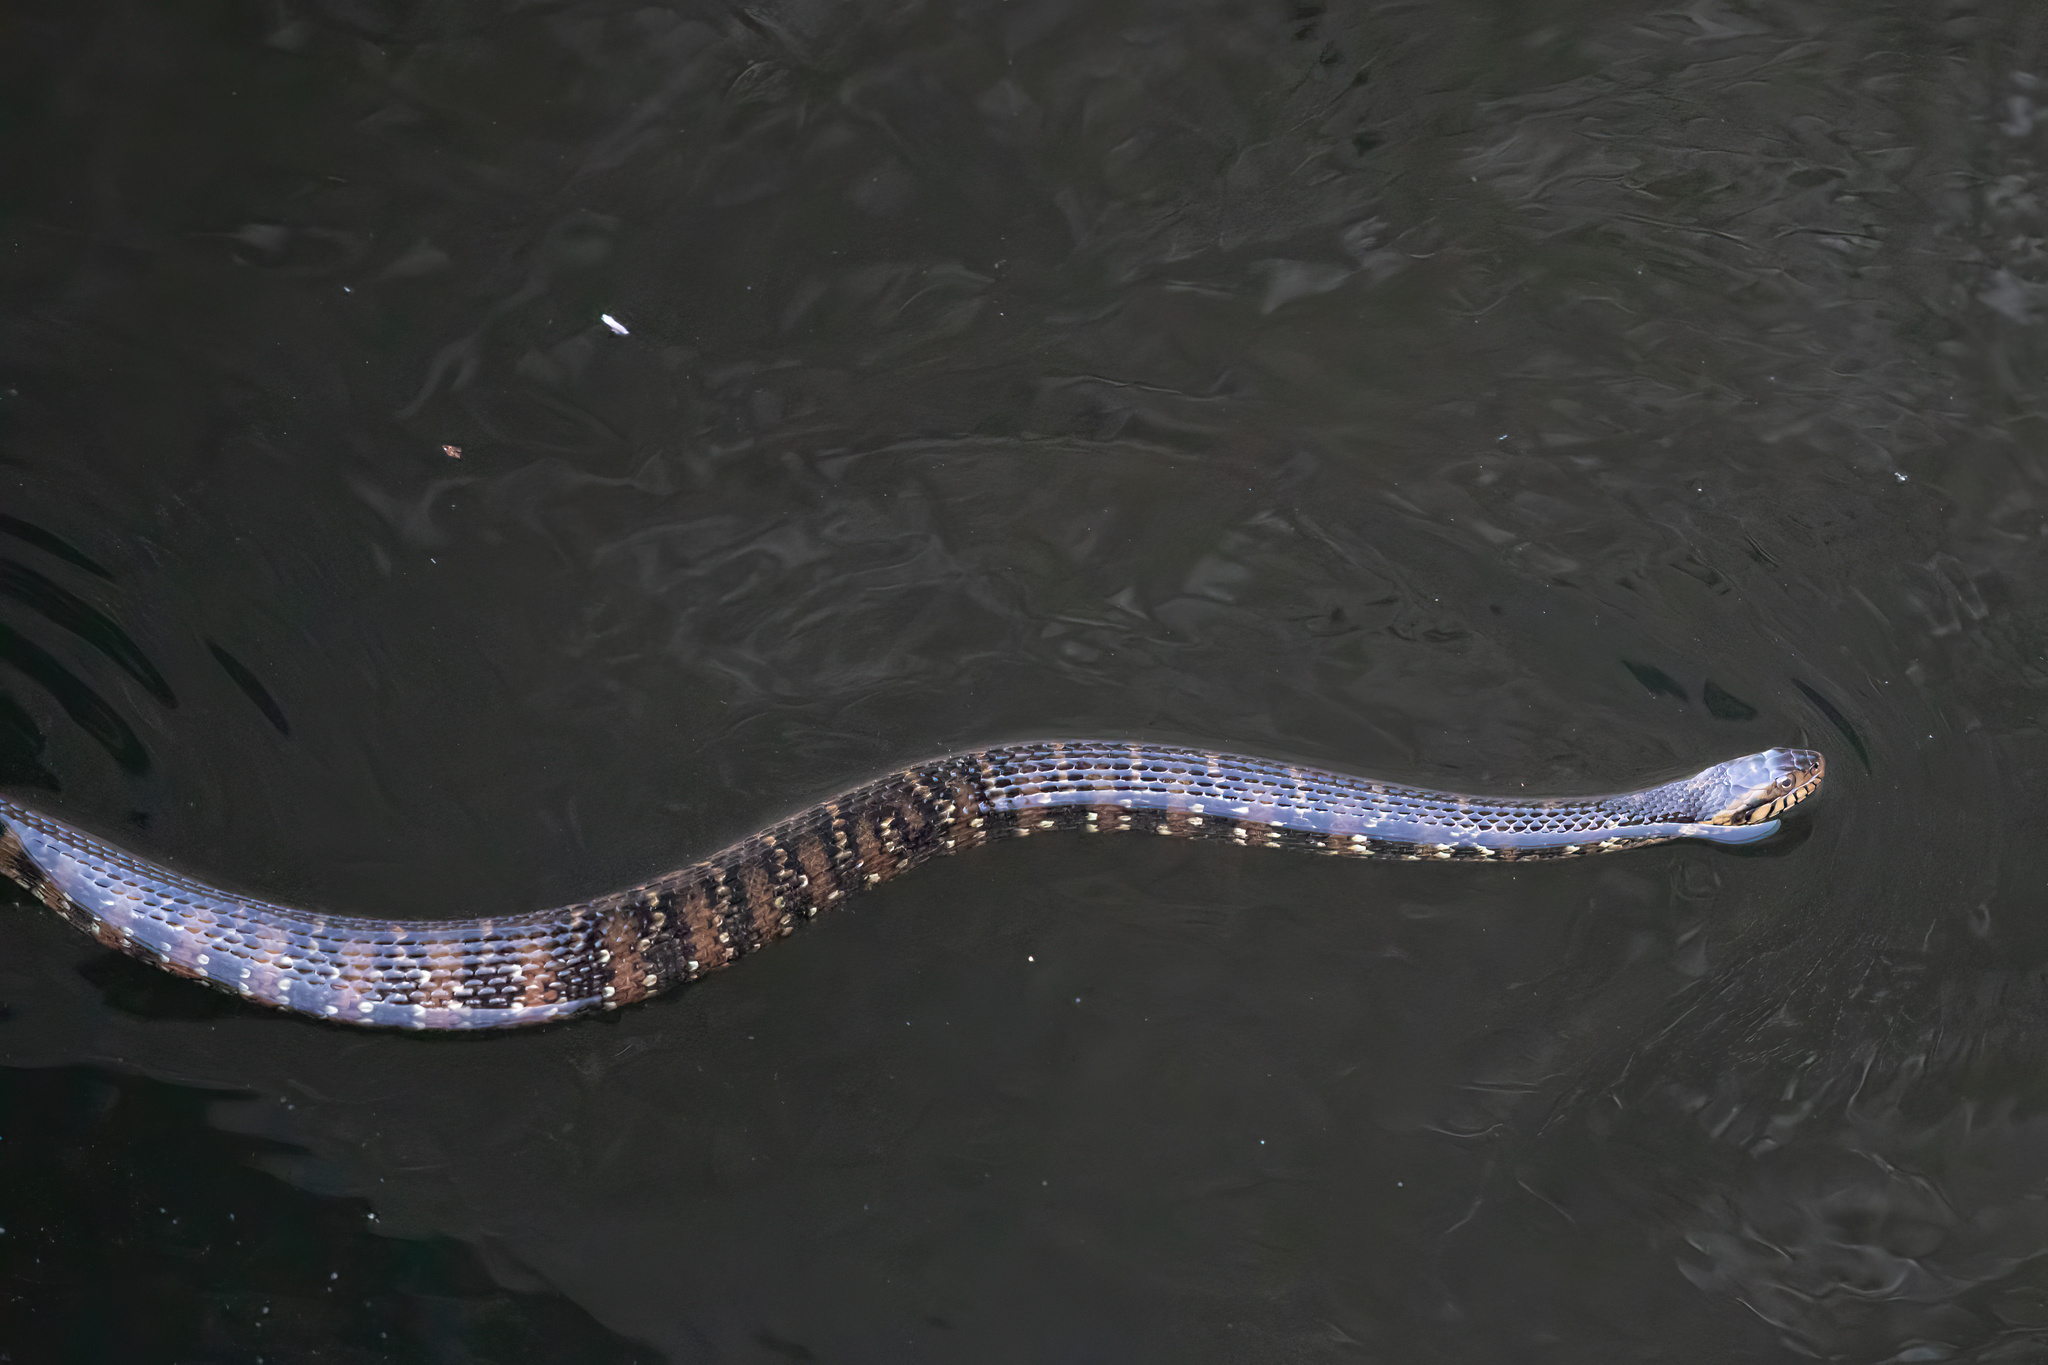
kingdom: Animalia
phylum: Chordata
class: Squamata
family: Colubridae
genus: Nerodia
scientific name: Nerodia fasciata
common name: Southern water snake
